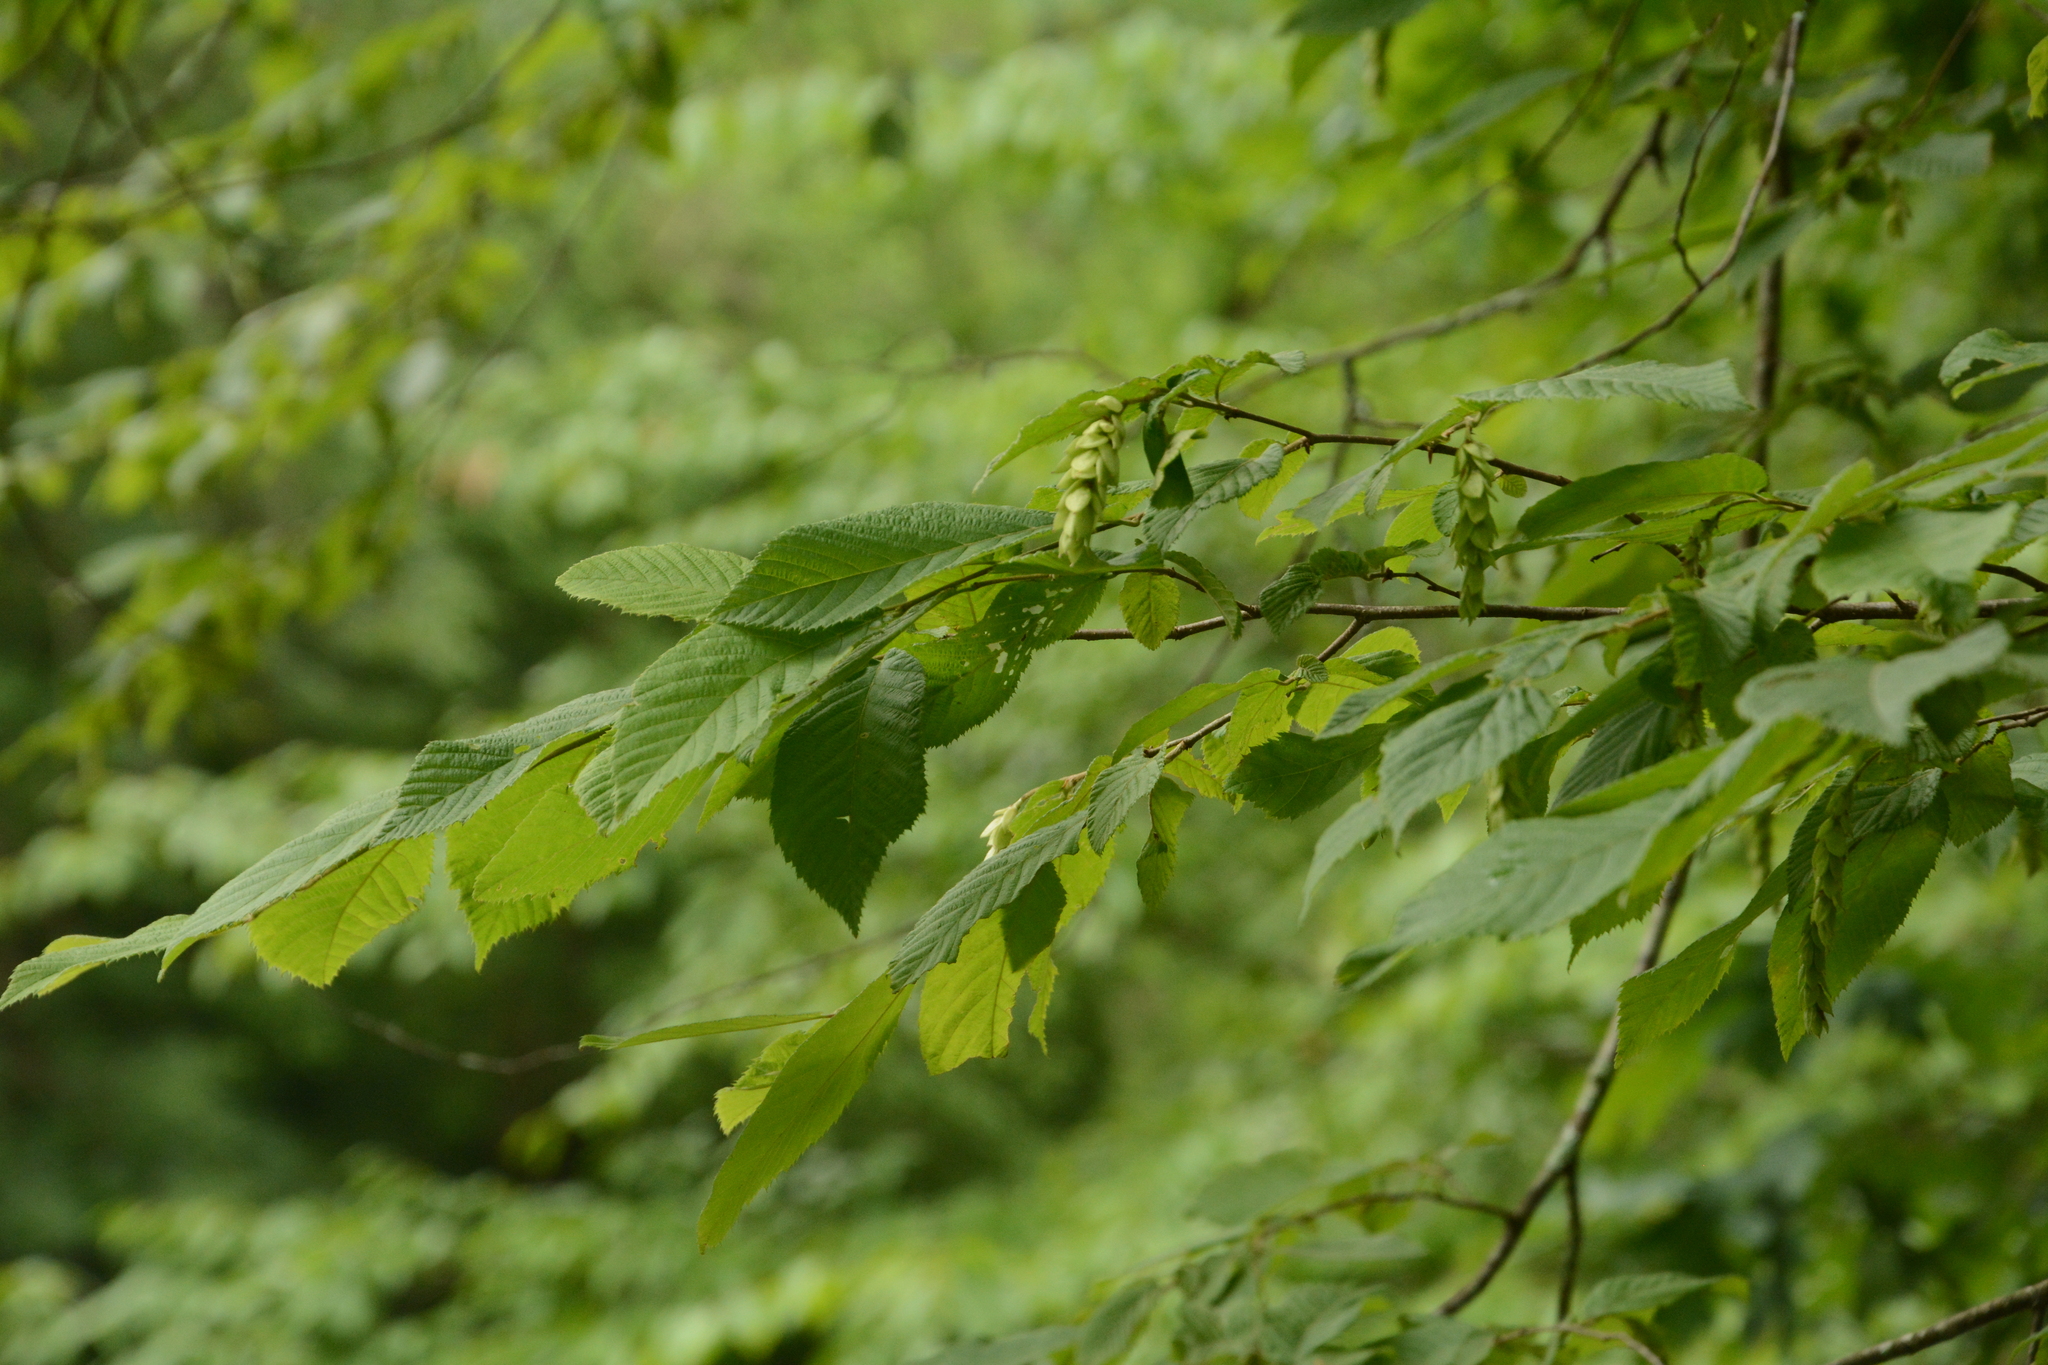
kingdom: Plantae
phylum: Tracheophyta
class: Magnoliopsida
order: Fagales
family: Betulaceae
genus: Ostrya
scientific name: Ostrya virginiana
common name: Ironwood
